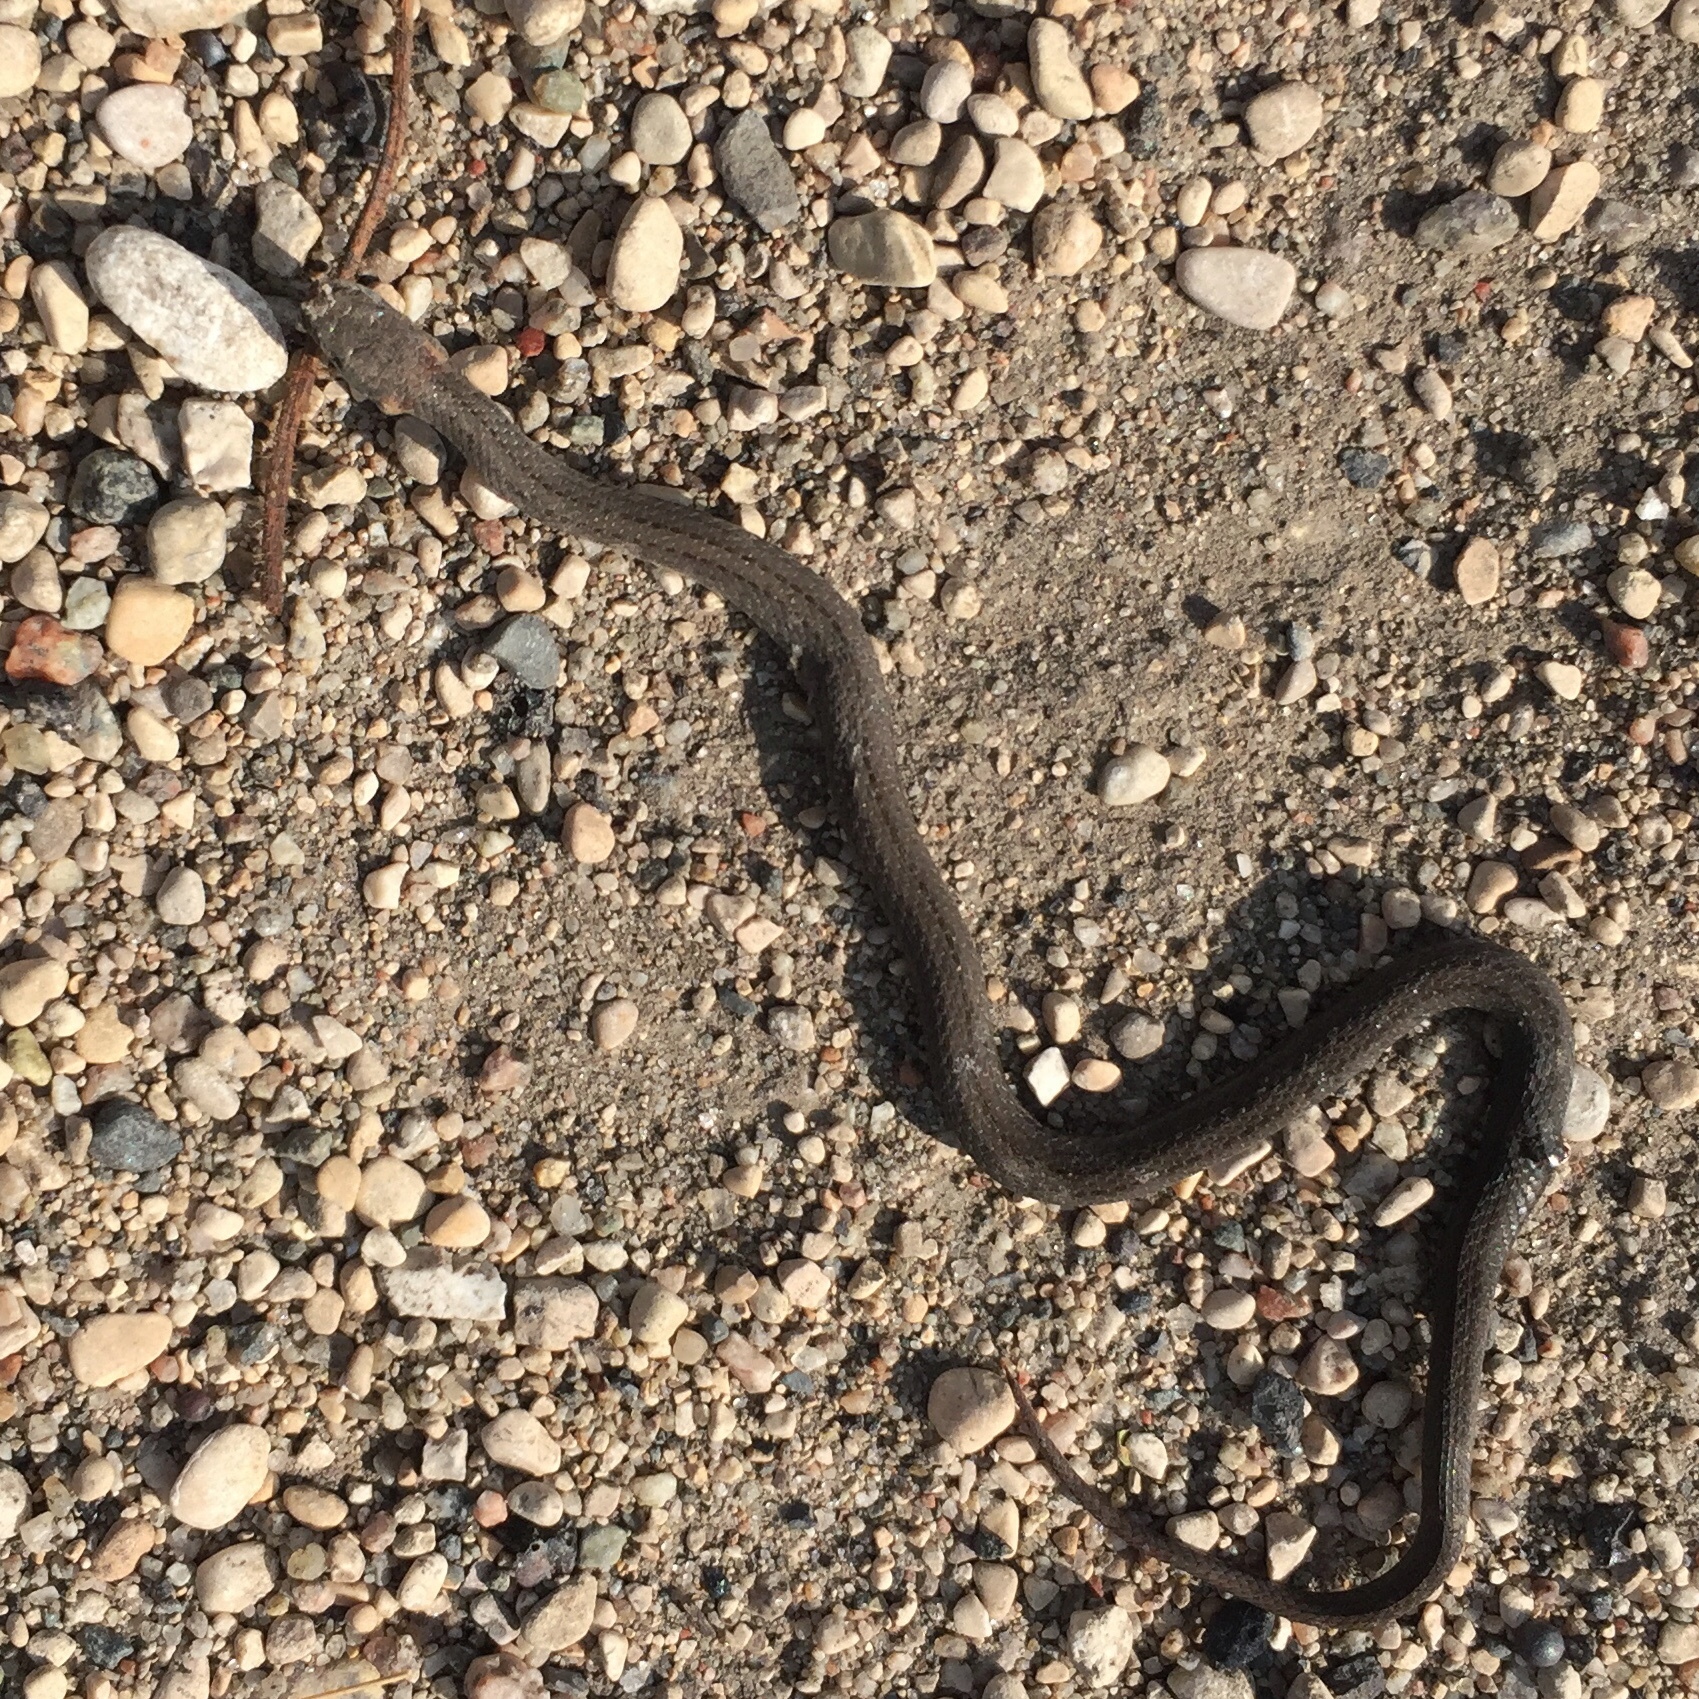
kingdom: Animalia
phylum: Chordata
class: Squamata
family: Colubridae
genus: Storeria
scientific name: Storeria occipitomaculata
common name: Redbelly snake
